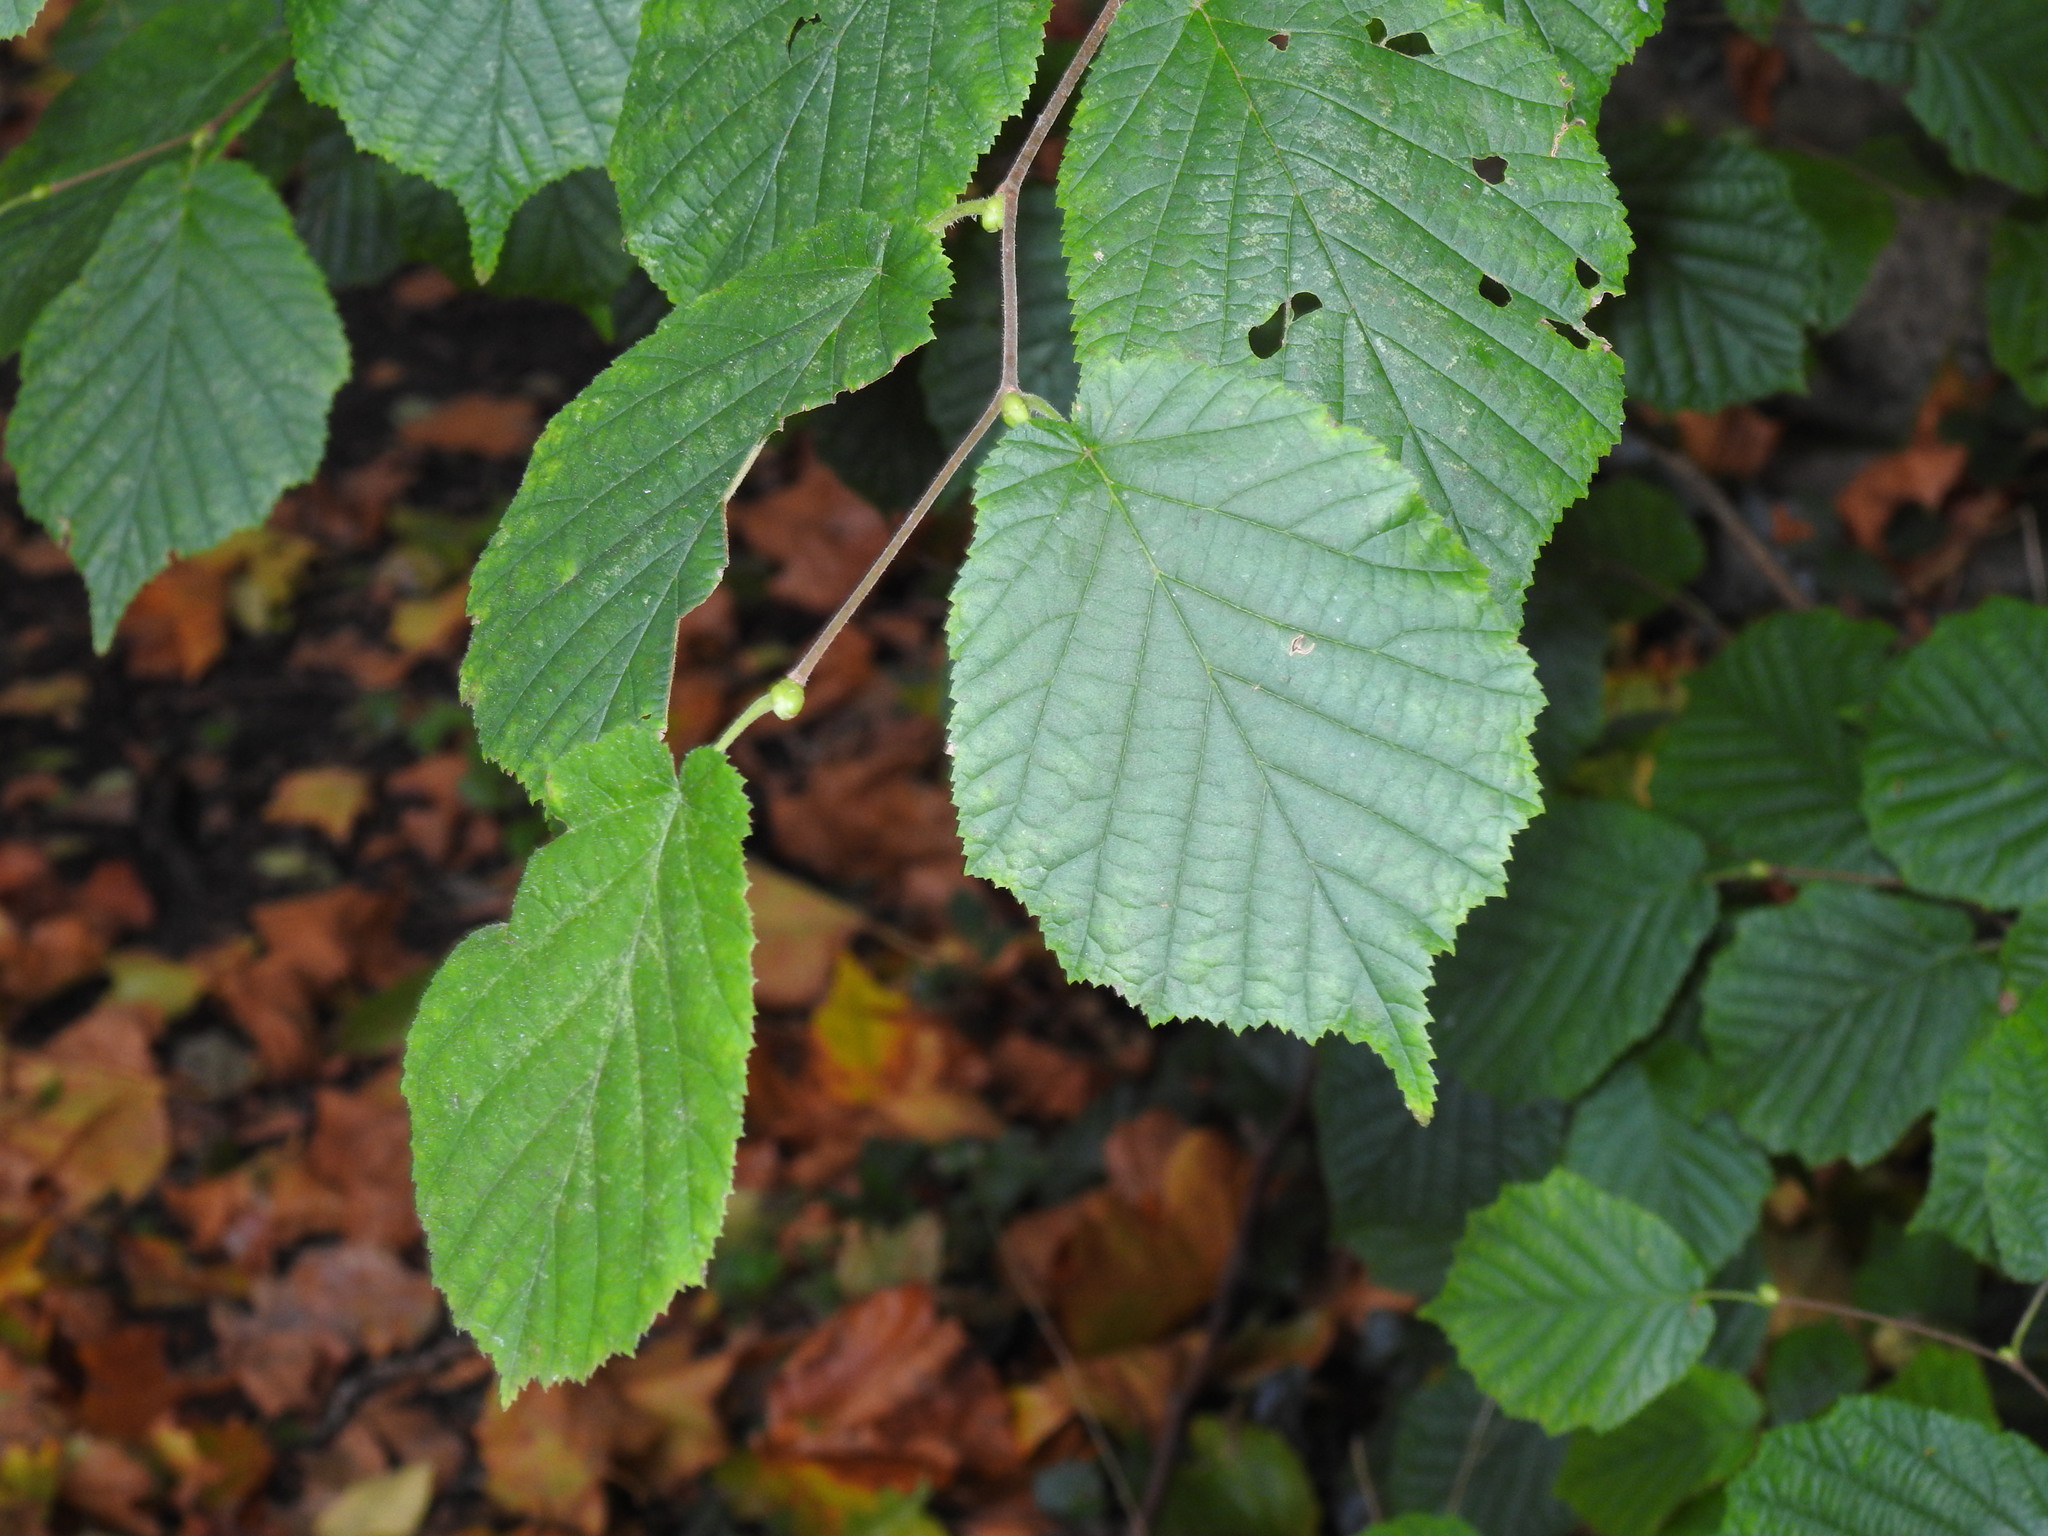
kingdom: Plantae
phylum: Tracheophyta
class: Magnoliopsida
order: Fagales
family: Betulaceae
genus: Corylus
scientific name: Corylus avellana
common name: European hazel
